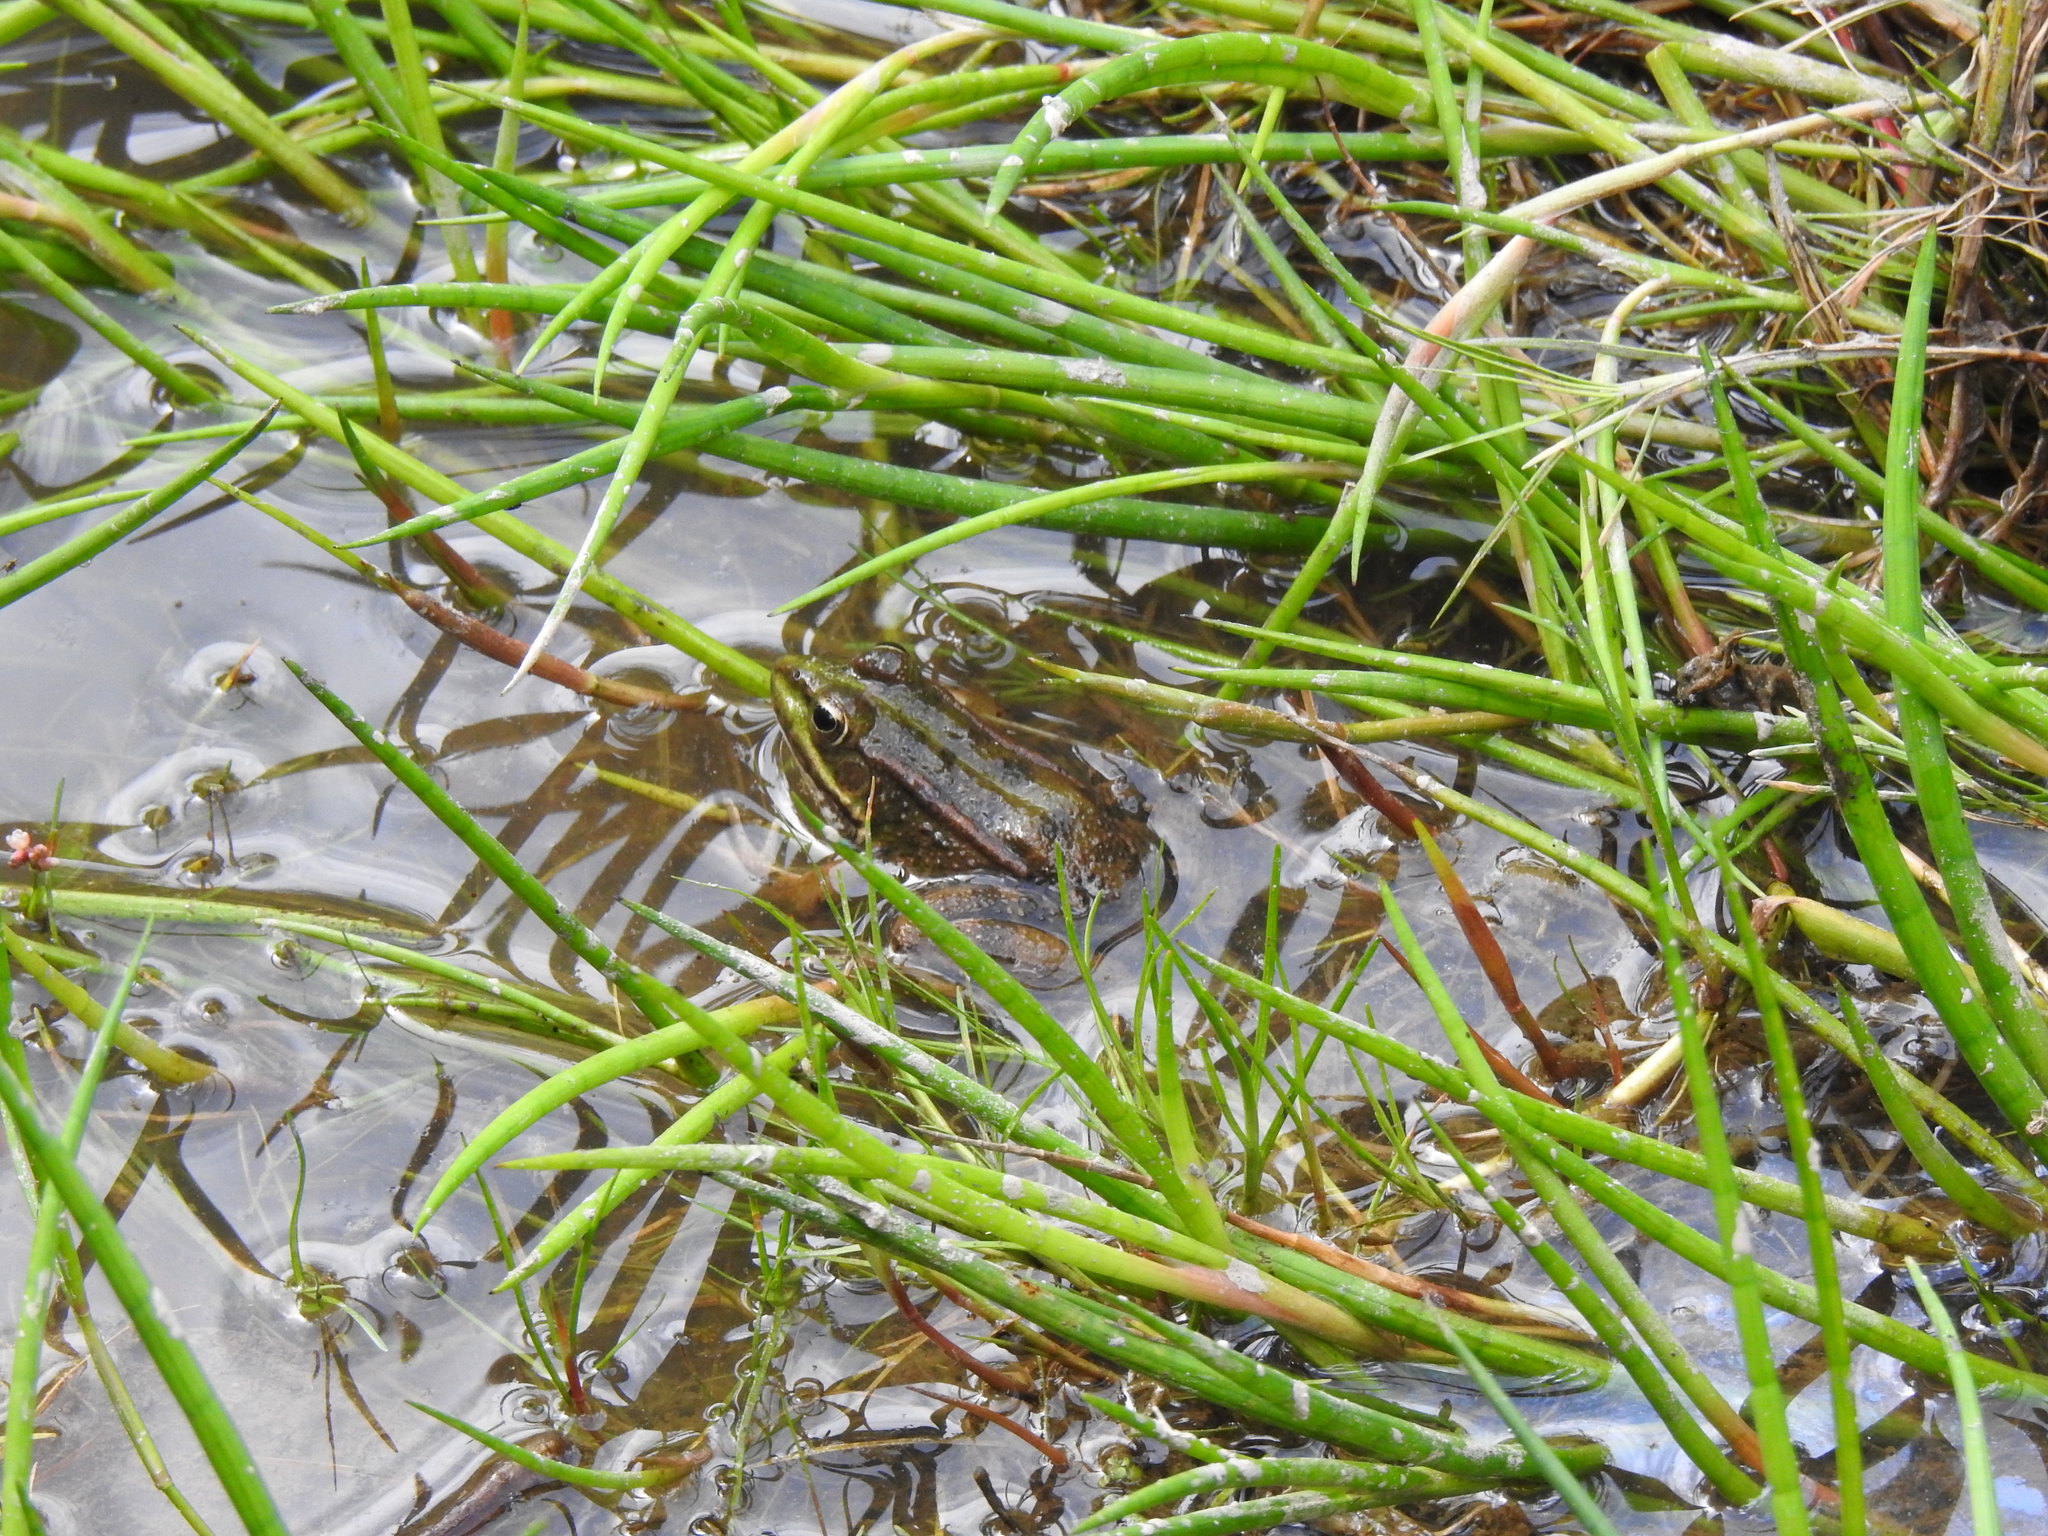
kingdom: Animalia
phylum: Chordata
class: Amphibia
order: Anura
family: Ranidae
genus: Pelophylax
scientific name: Pelophylax perezi
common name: Perez's frog
